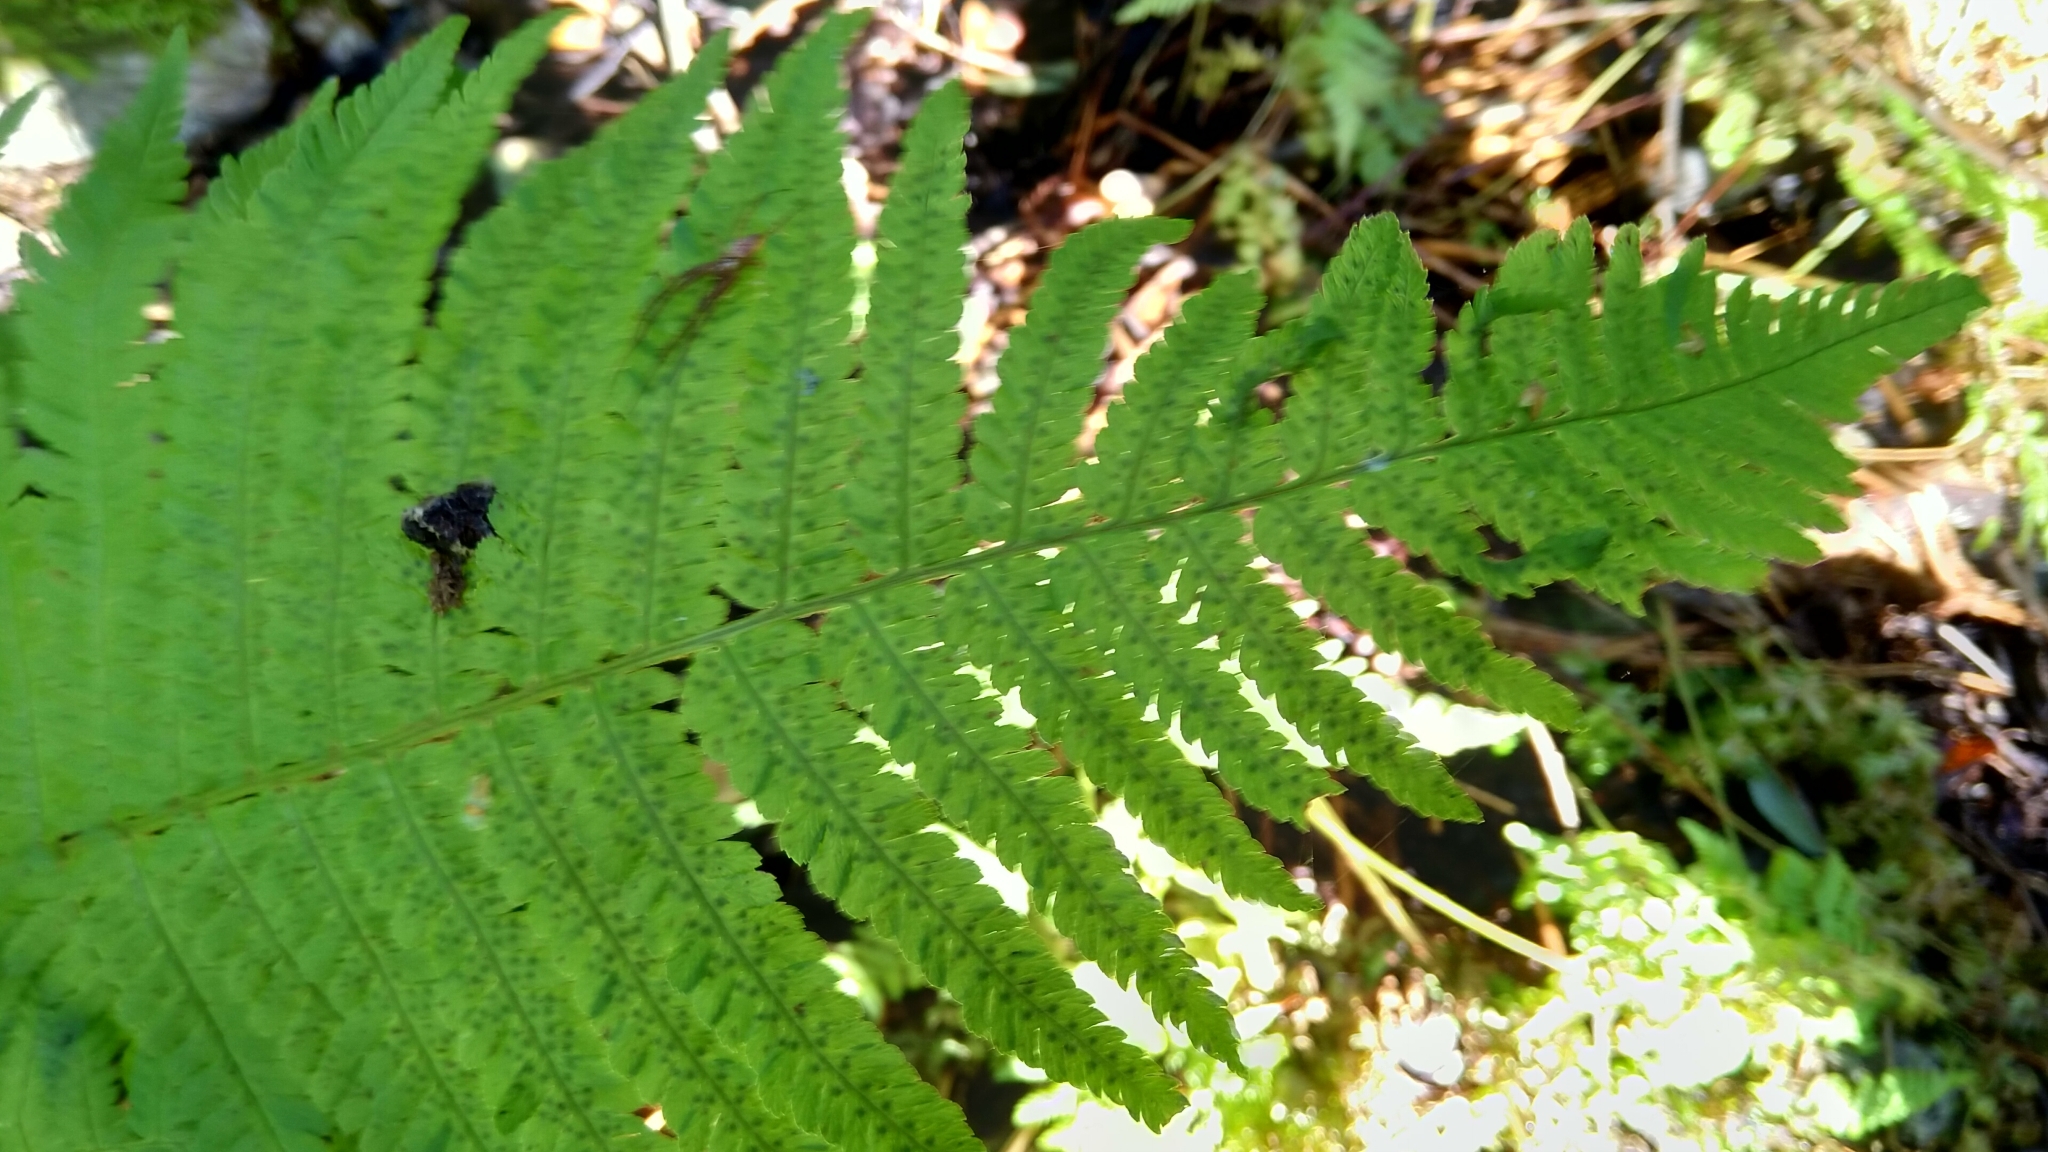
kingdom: Plantae
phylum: Tracheophyta
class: Polypodiopsida
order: Polypodiales
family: Dryopteridaceae
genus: Dryopteris
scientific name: Dryopteris filix-mas
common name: Male fern
